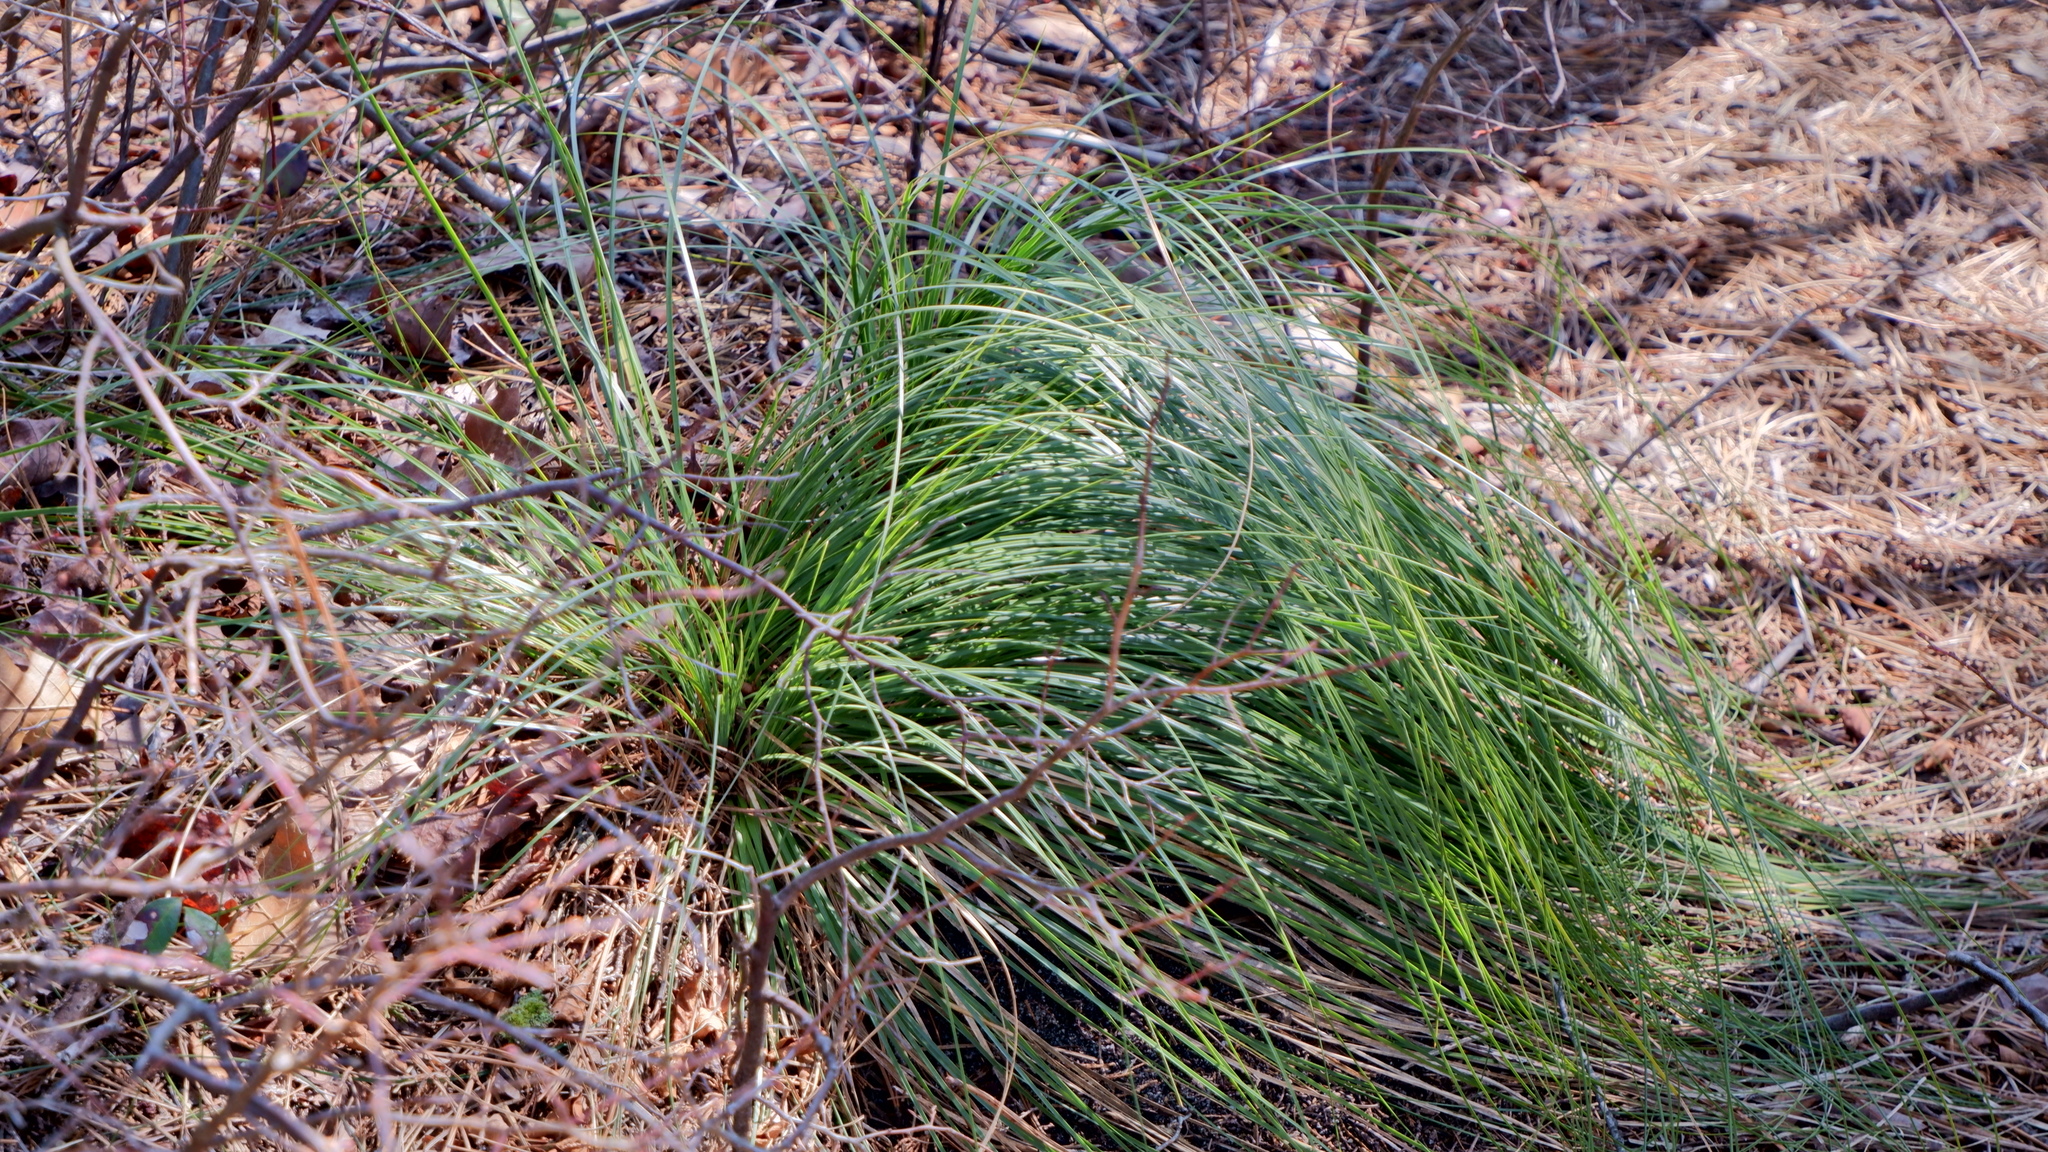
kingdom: Plantae
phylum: Tracheophyta
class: Liliopsida
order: Liliales
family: Melanthiaceae
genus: Xerophyllum
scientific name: Xerophyllum asphodeloides
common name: Mountain-asphodel
